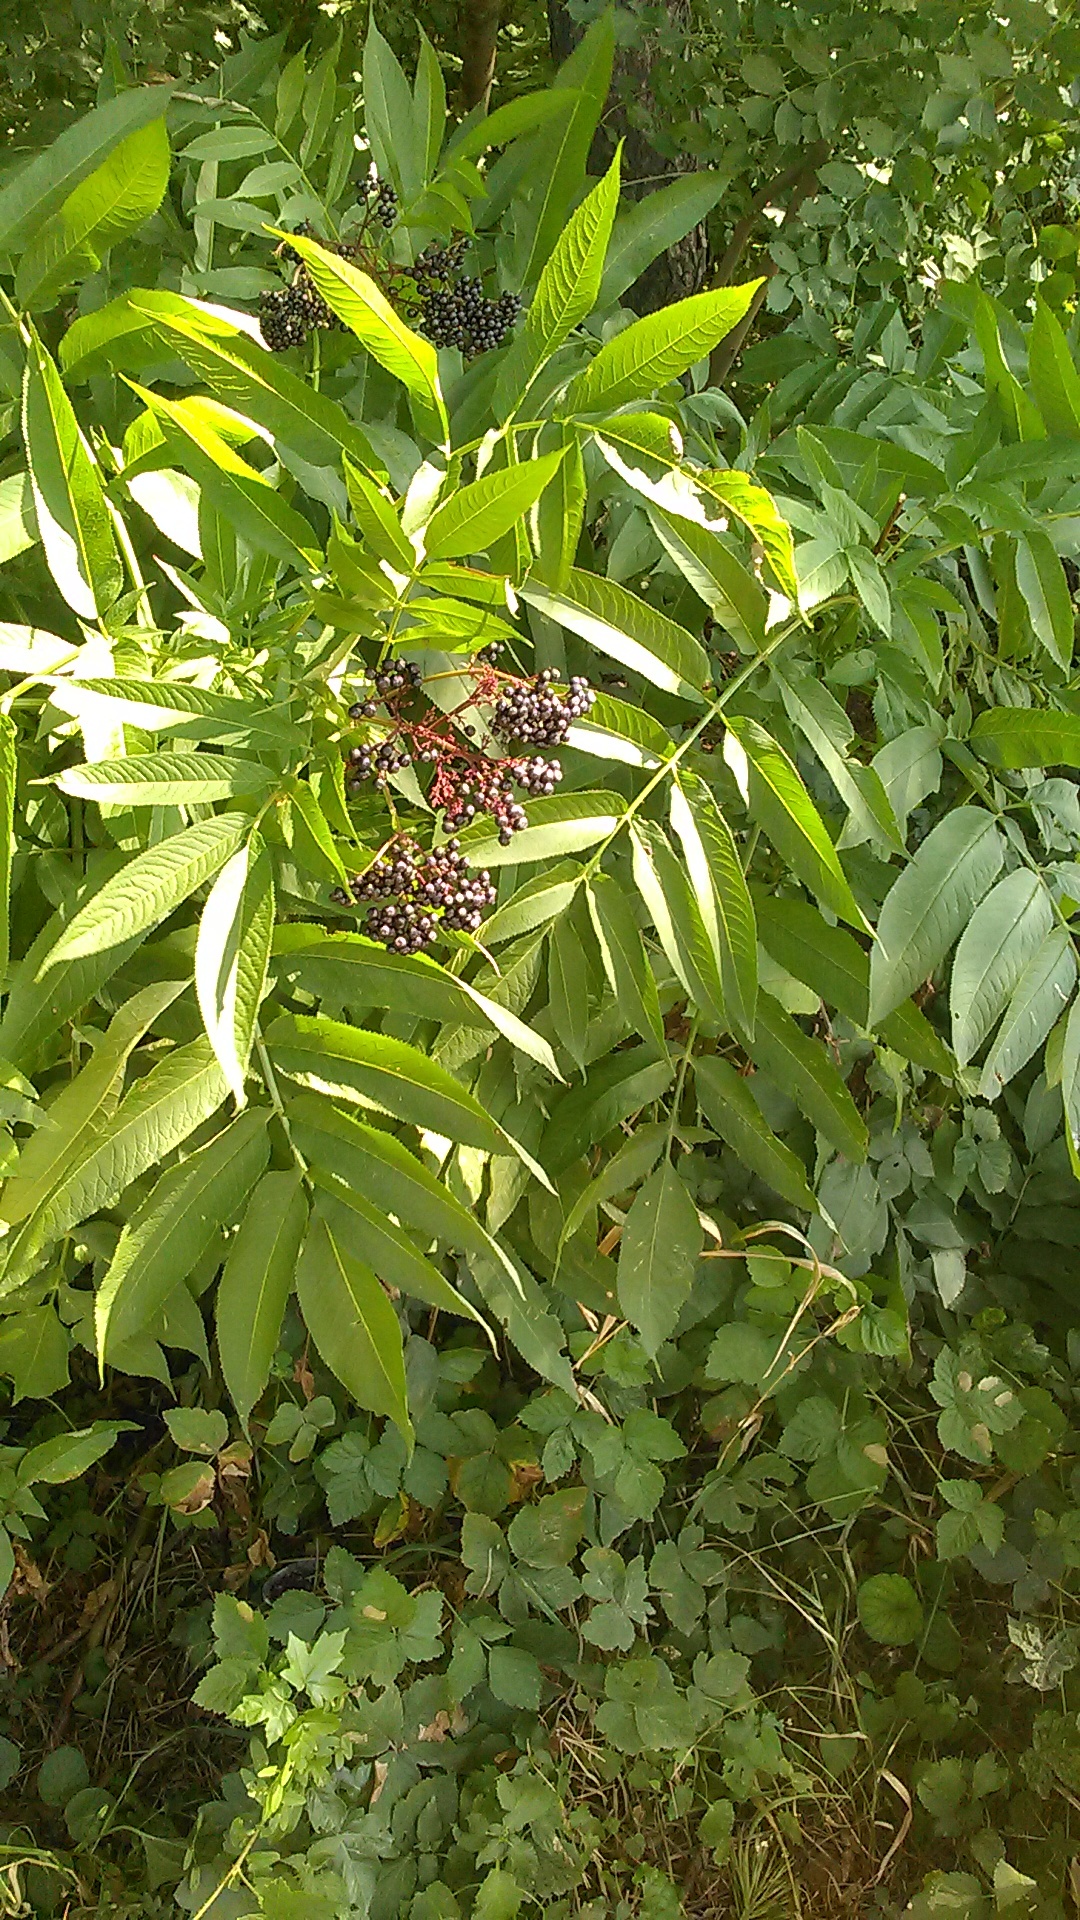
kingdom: Plantae
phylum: Tracheophyta
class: Magnoliopsida
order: Dipsacales
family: Viburnaceae
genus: Sambucus
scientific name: Sambucus nigra
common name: Elder
